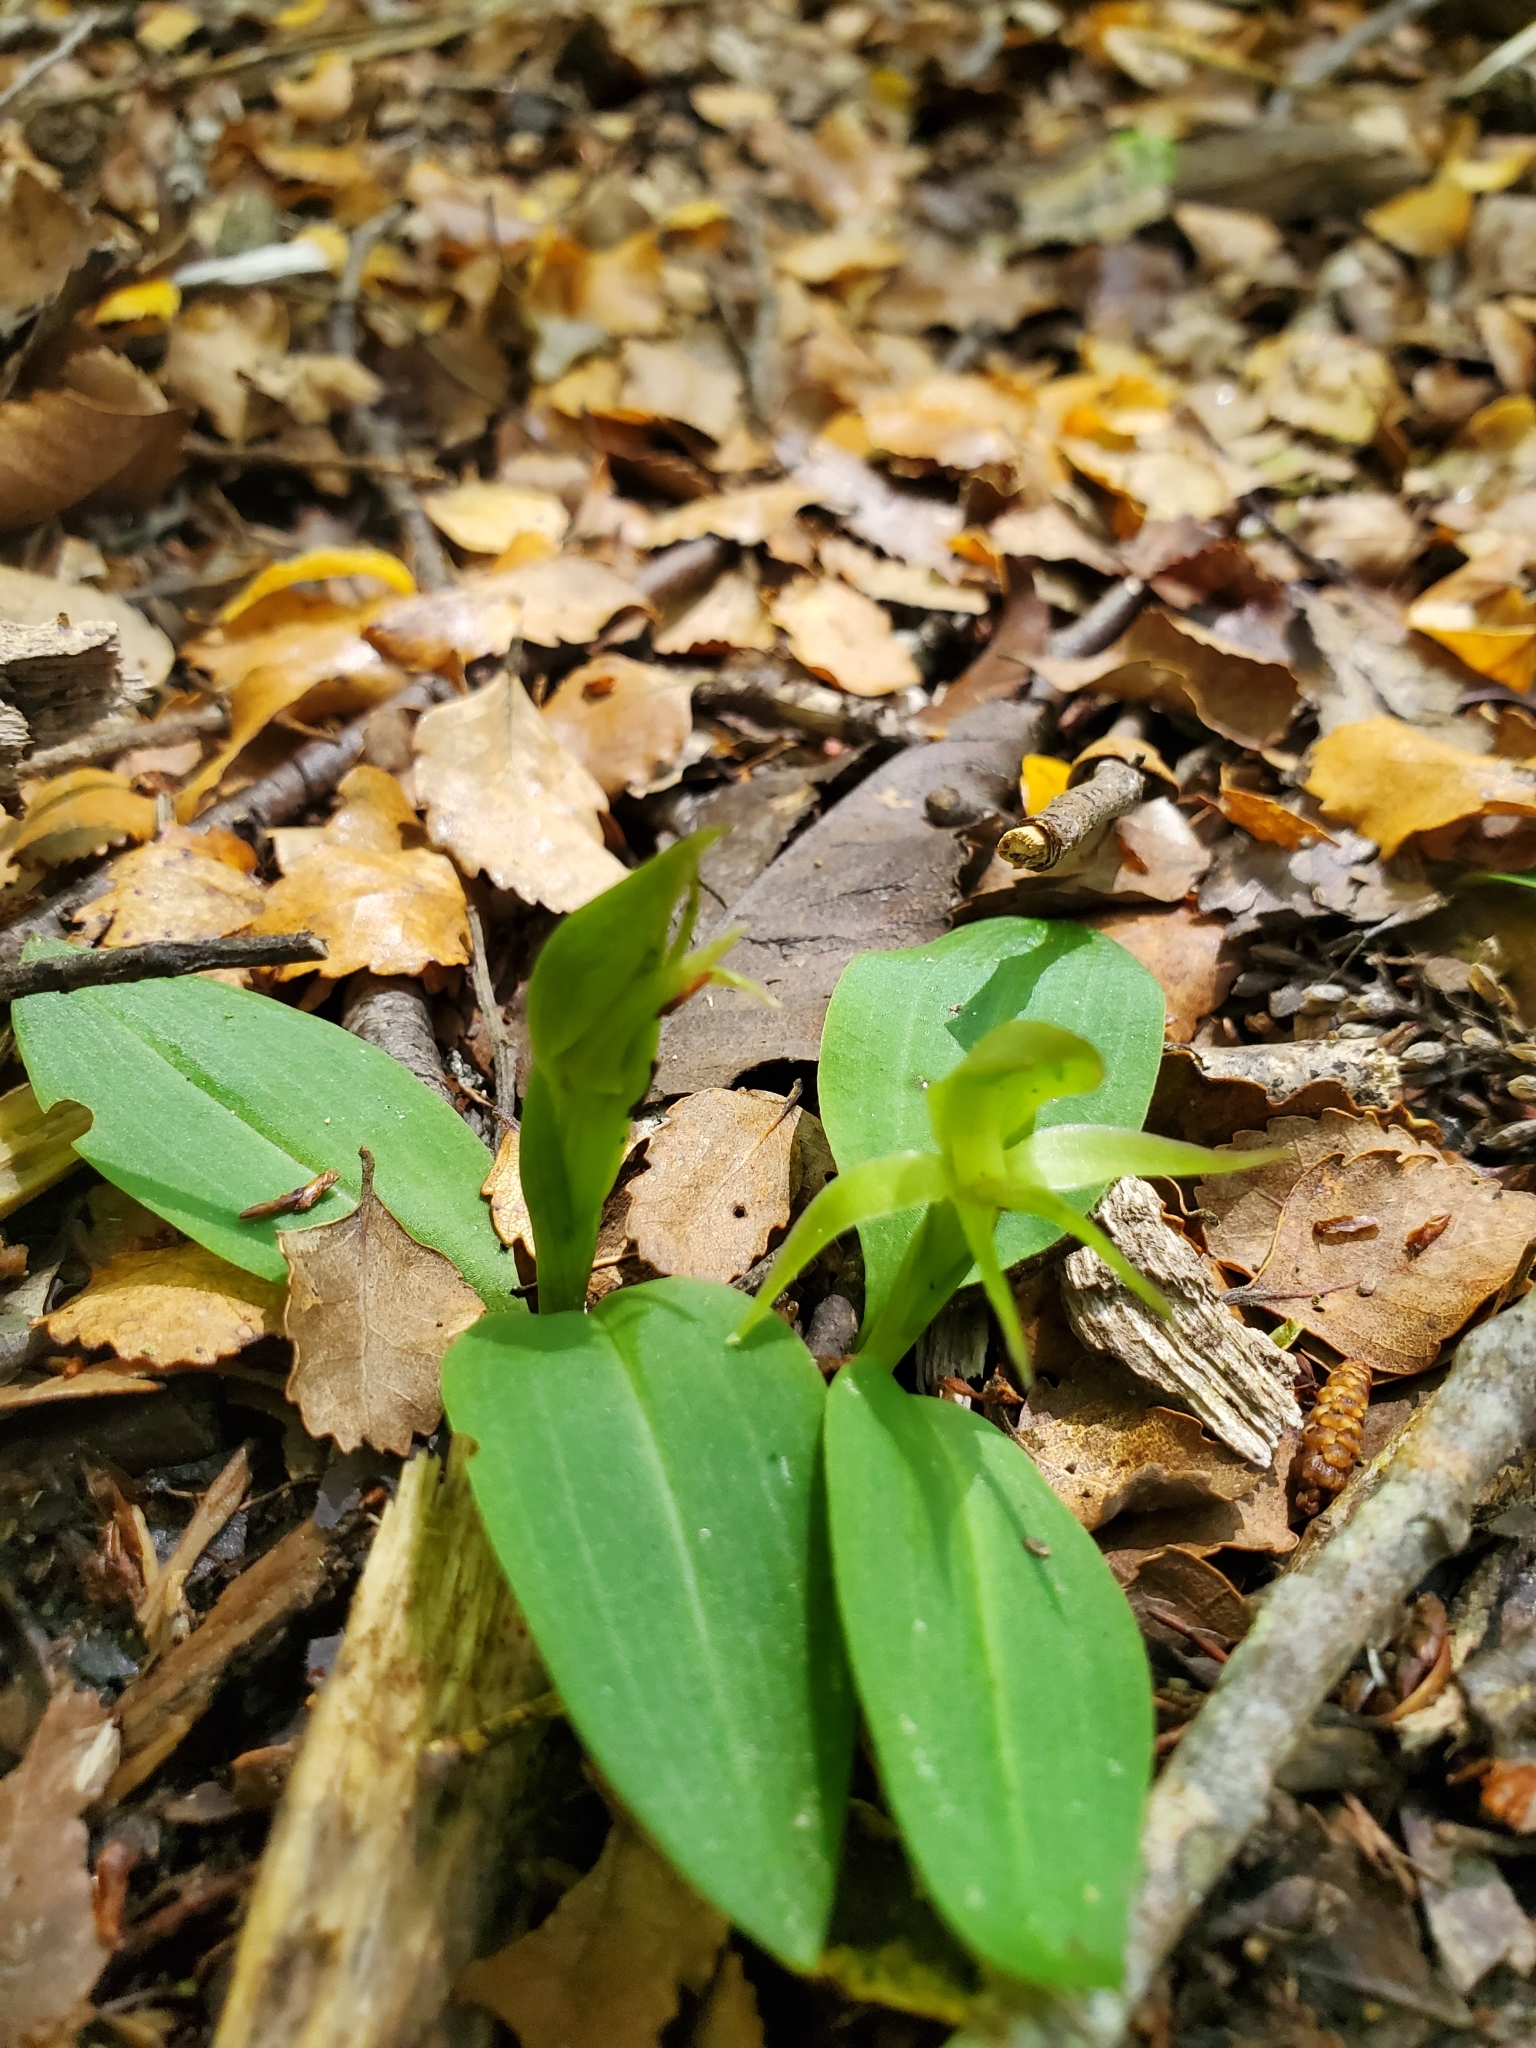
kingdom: Plantae
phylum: Tracheophyta
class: Liliopsida
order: Asparagales
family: Orchidaceae
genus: Chiloglottis
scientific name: Chiloglottis cornuta
